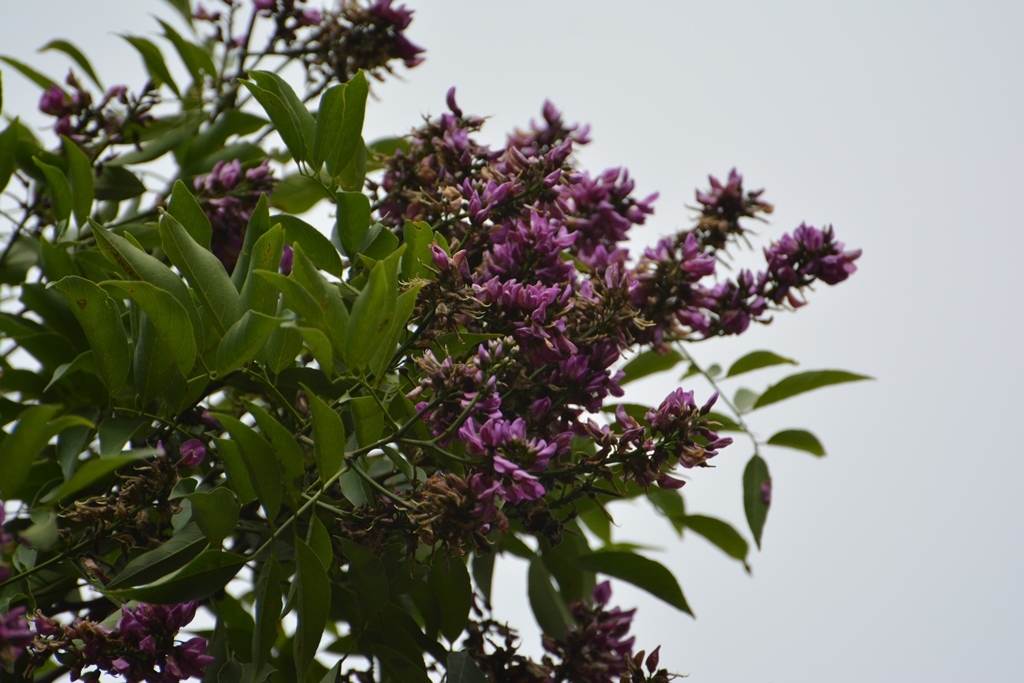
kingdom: Plantae
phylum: Tracheophyta
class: Magnoliopsida
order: Fabales
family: Fabaceae
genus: Lonchocarpus
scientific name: Lonchocarpus sumiderensis
